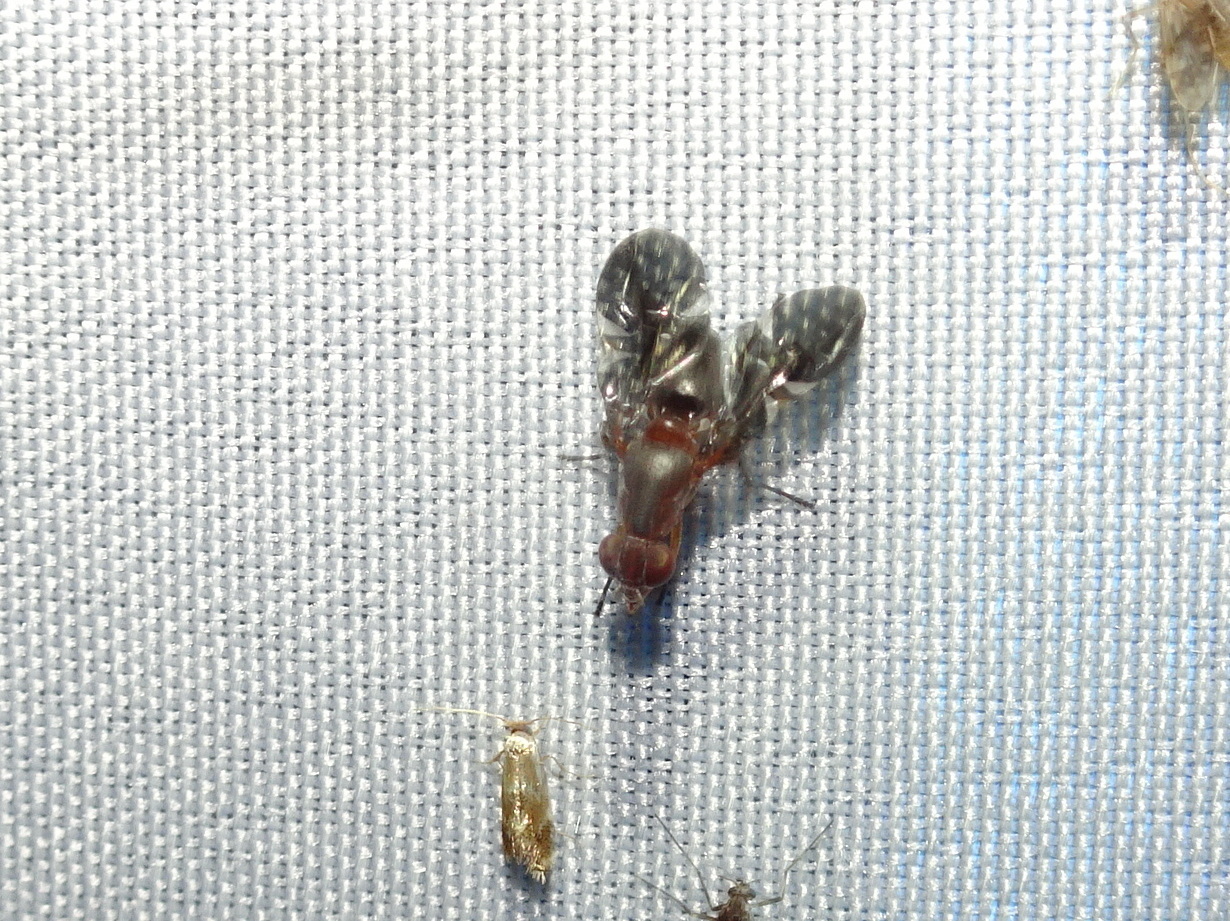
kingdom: Animalia
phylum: Arthropoda
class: Insecta
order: Diptera
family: Ulidiidae
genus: Delphinia
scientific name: Delphinia picta
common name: Common picture-winged fly
